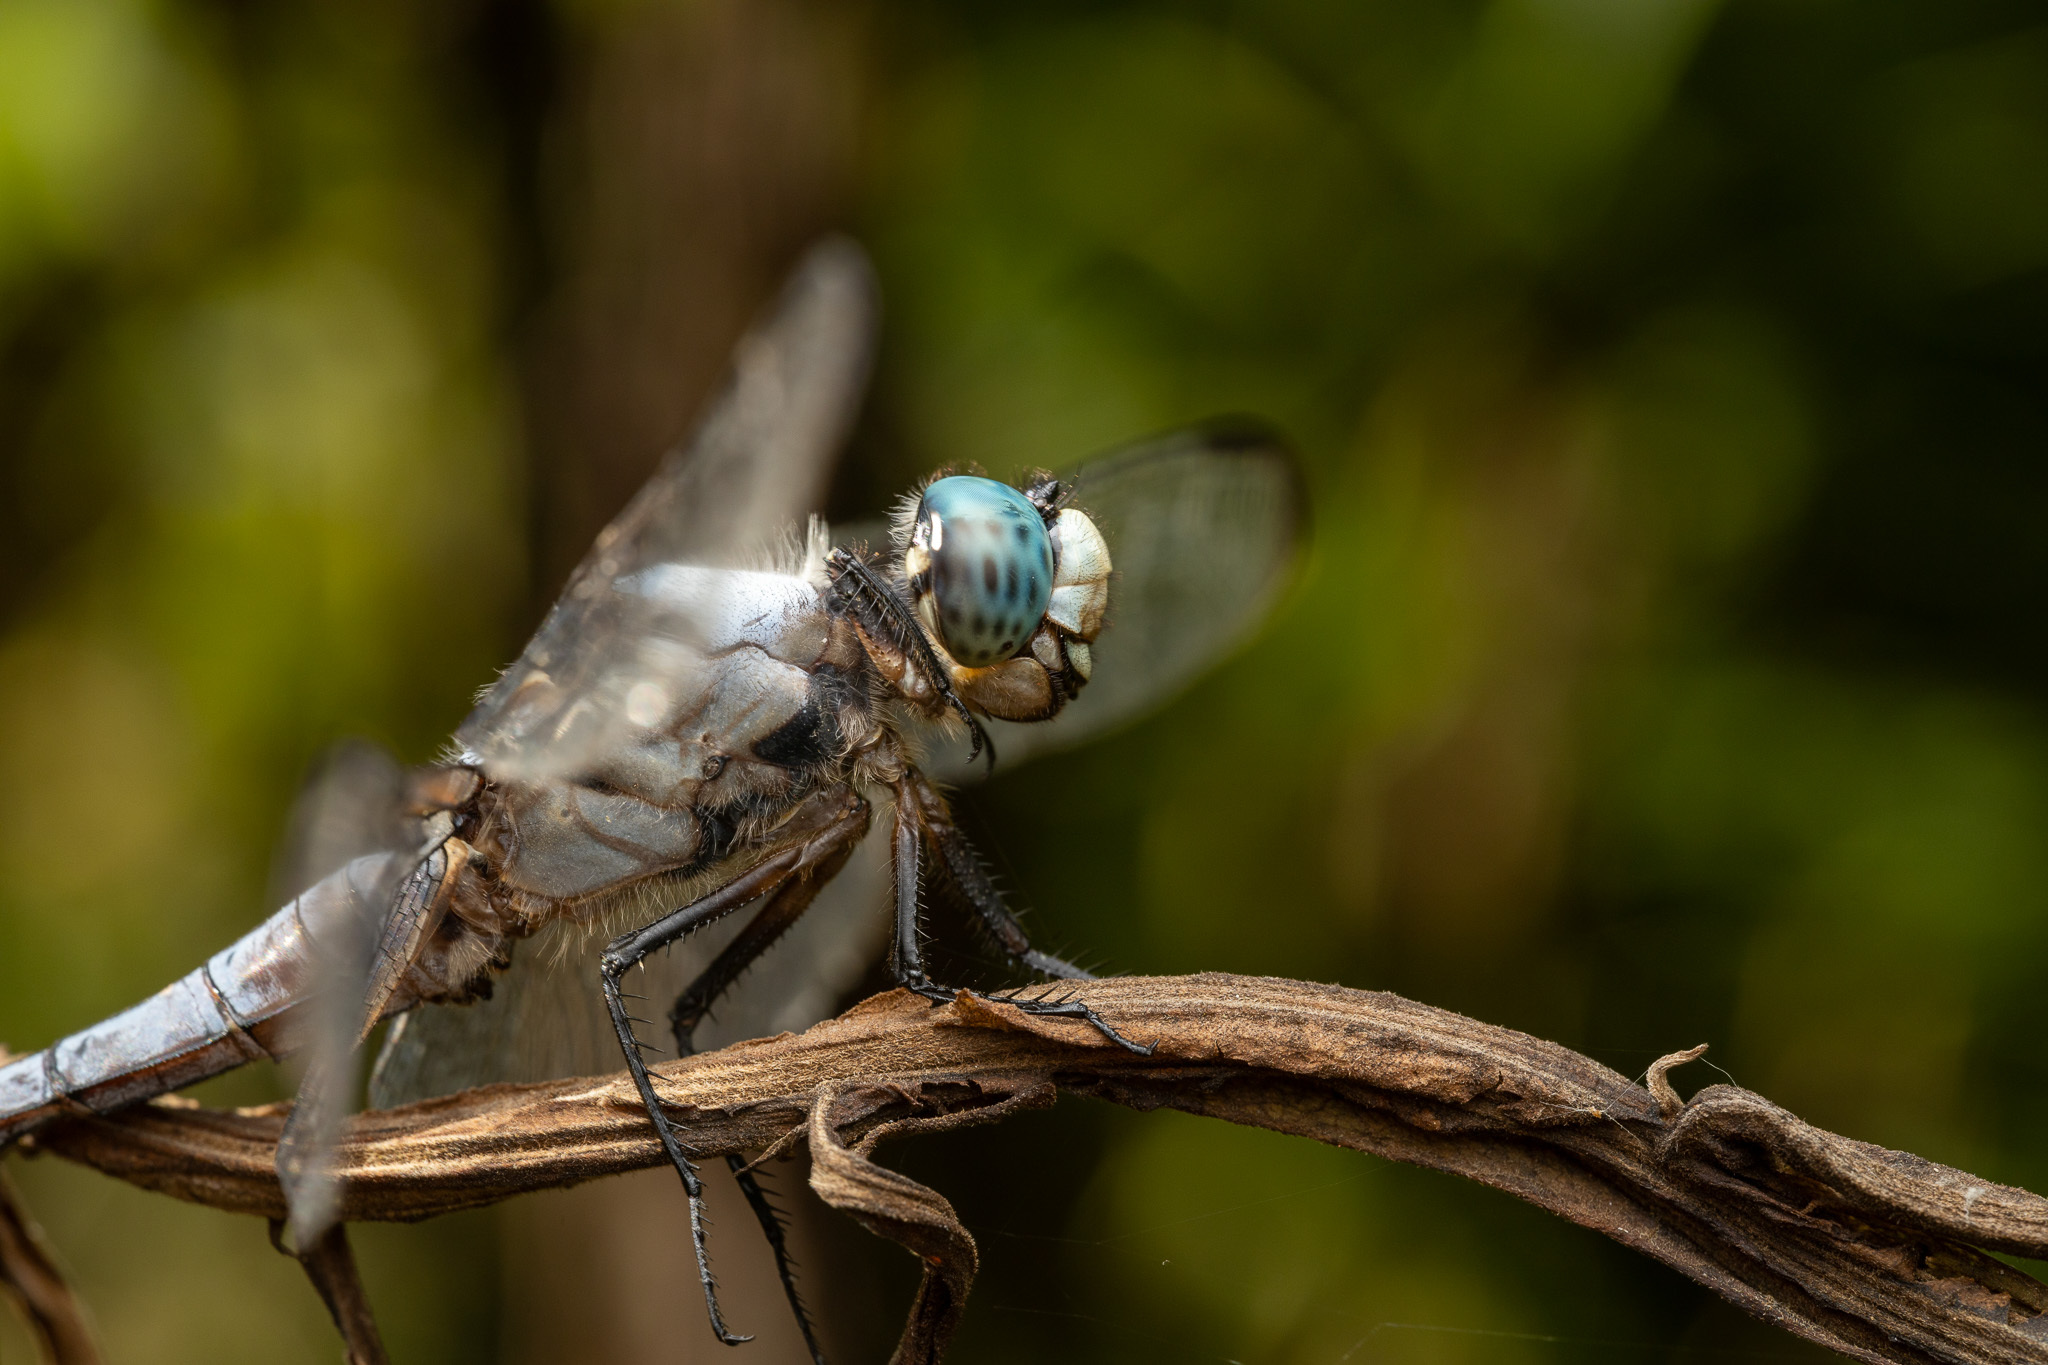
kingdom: Animalia
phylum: Arthropoda
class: Insecta
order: Odonata
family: Libellulidae
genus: Libellula
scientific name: Libellula vibrans
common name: Great blue skimmer
